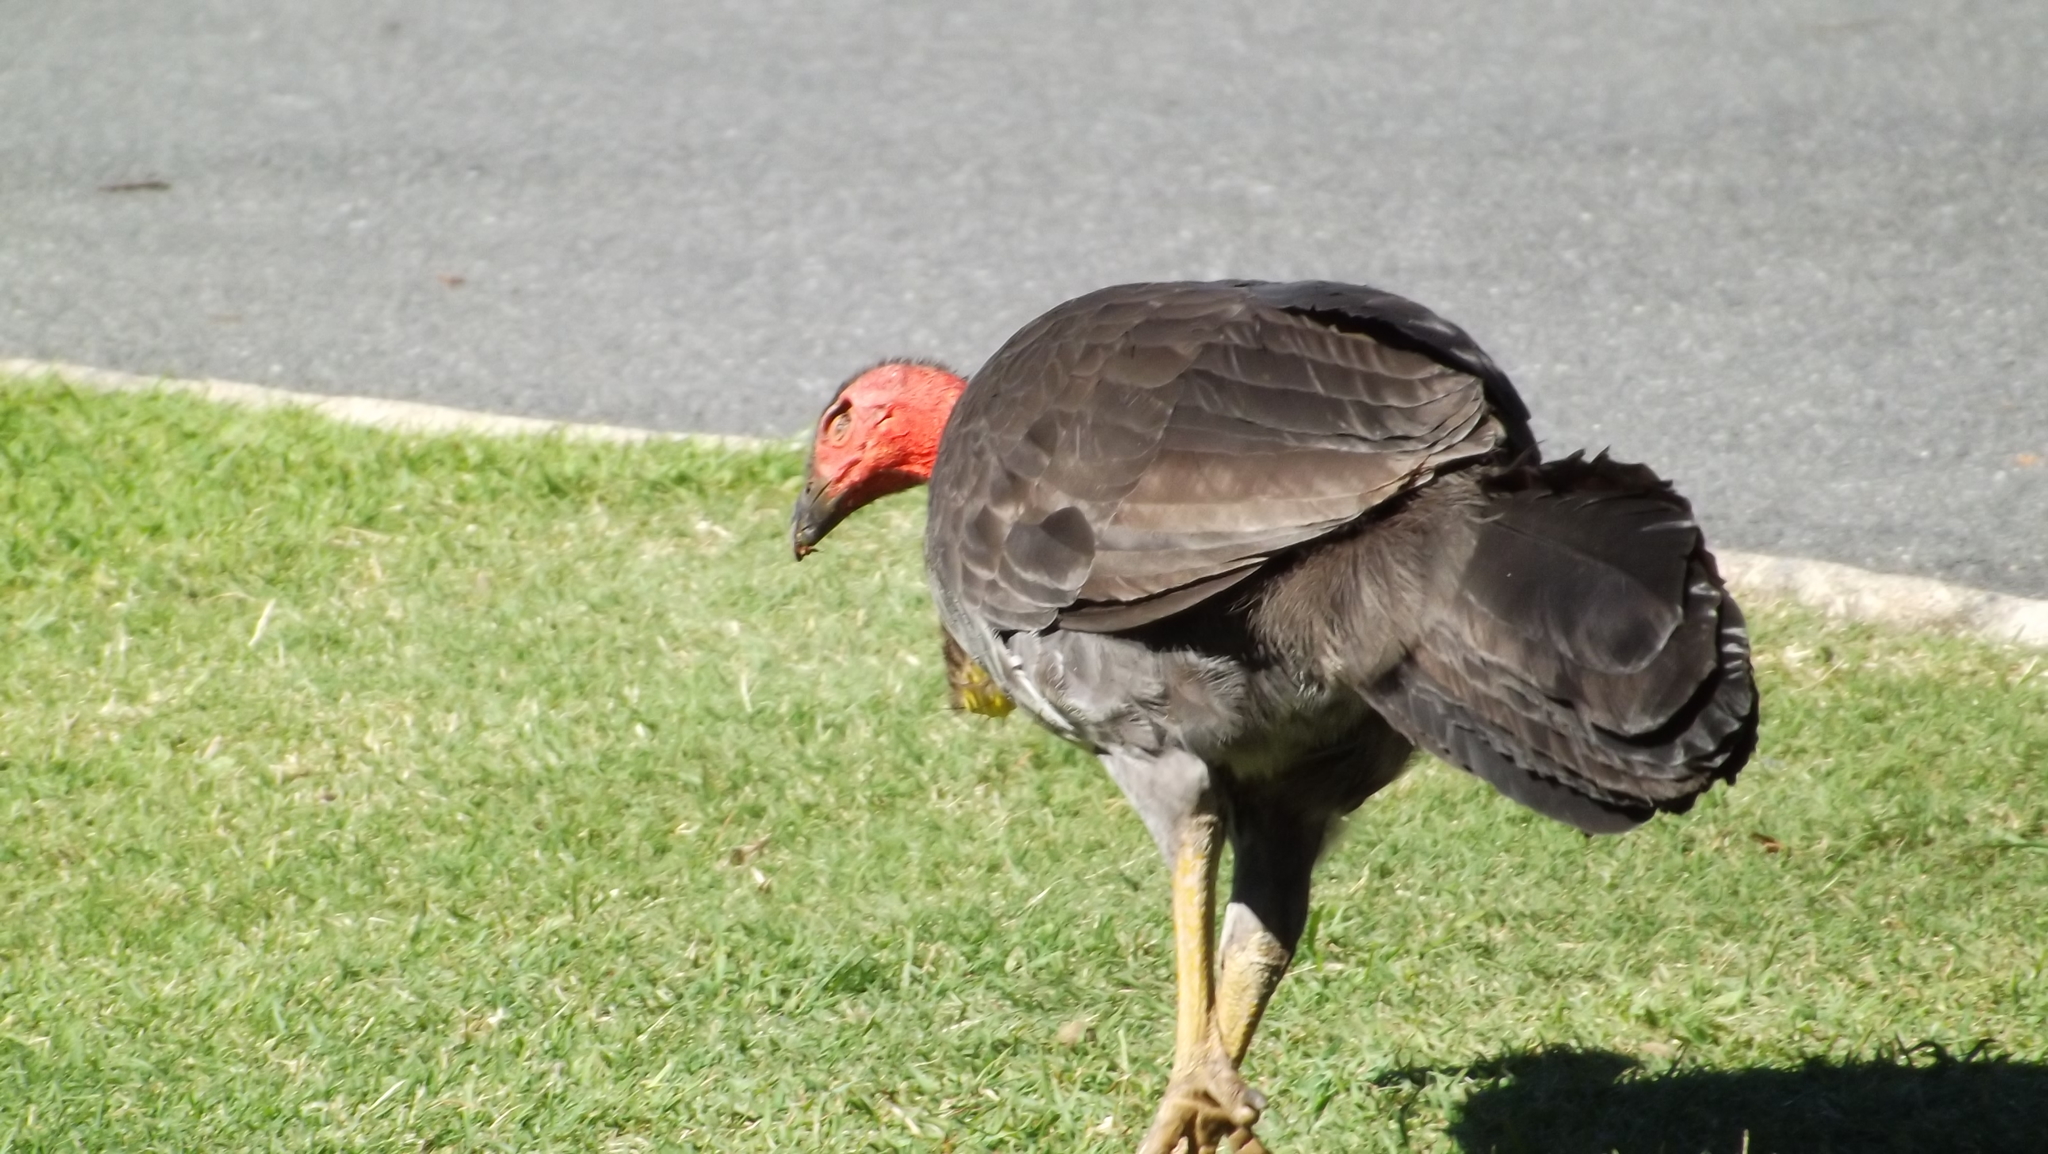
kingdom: Animalia
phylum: Chordata
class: Aves
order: Galliformes
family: Megapodiidae
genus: Alectura
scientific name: Alectura lathami
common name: Australian brushturkey
